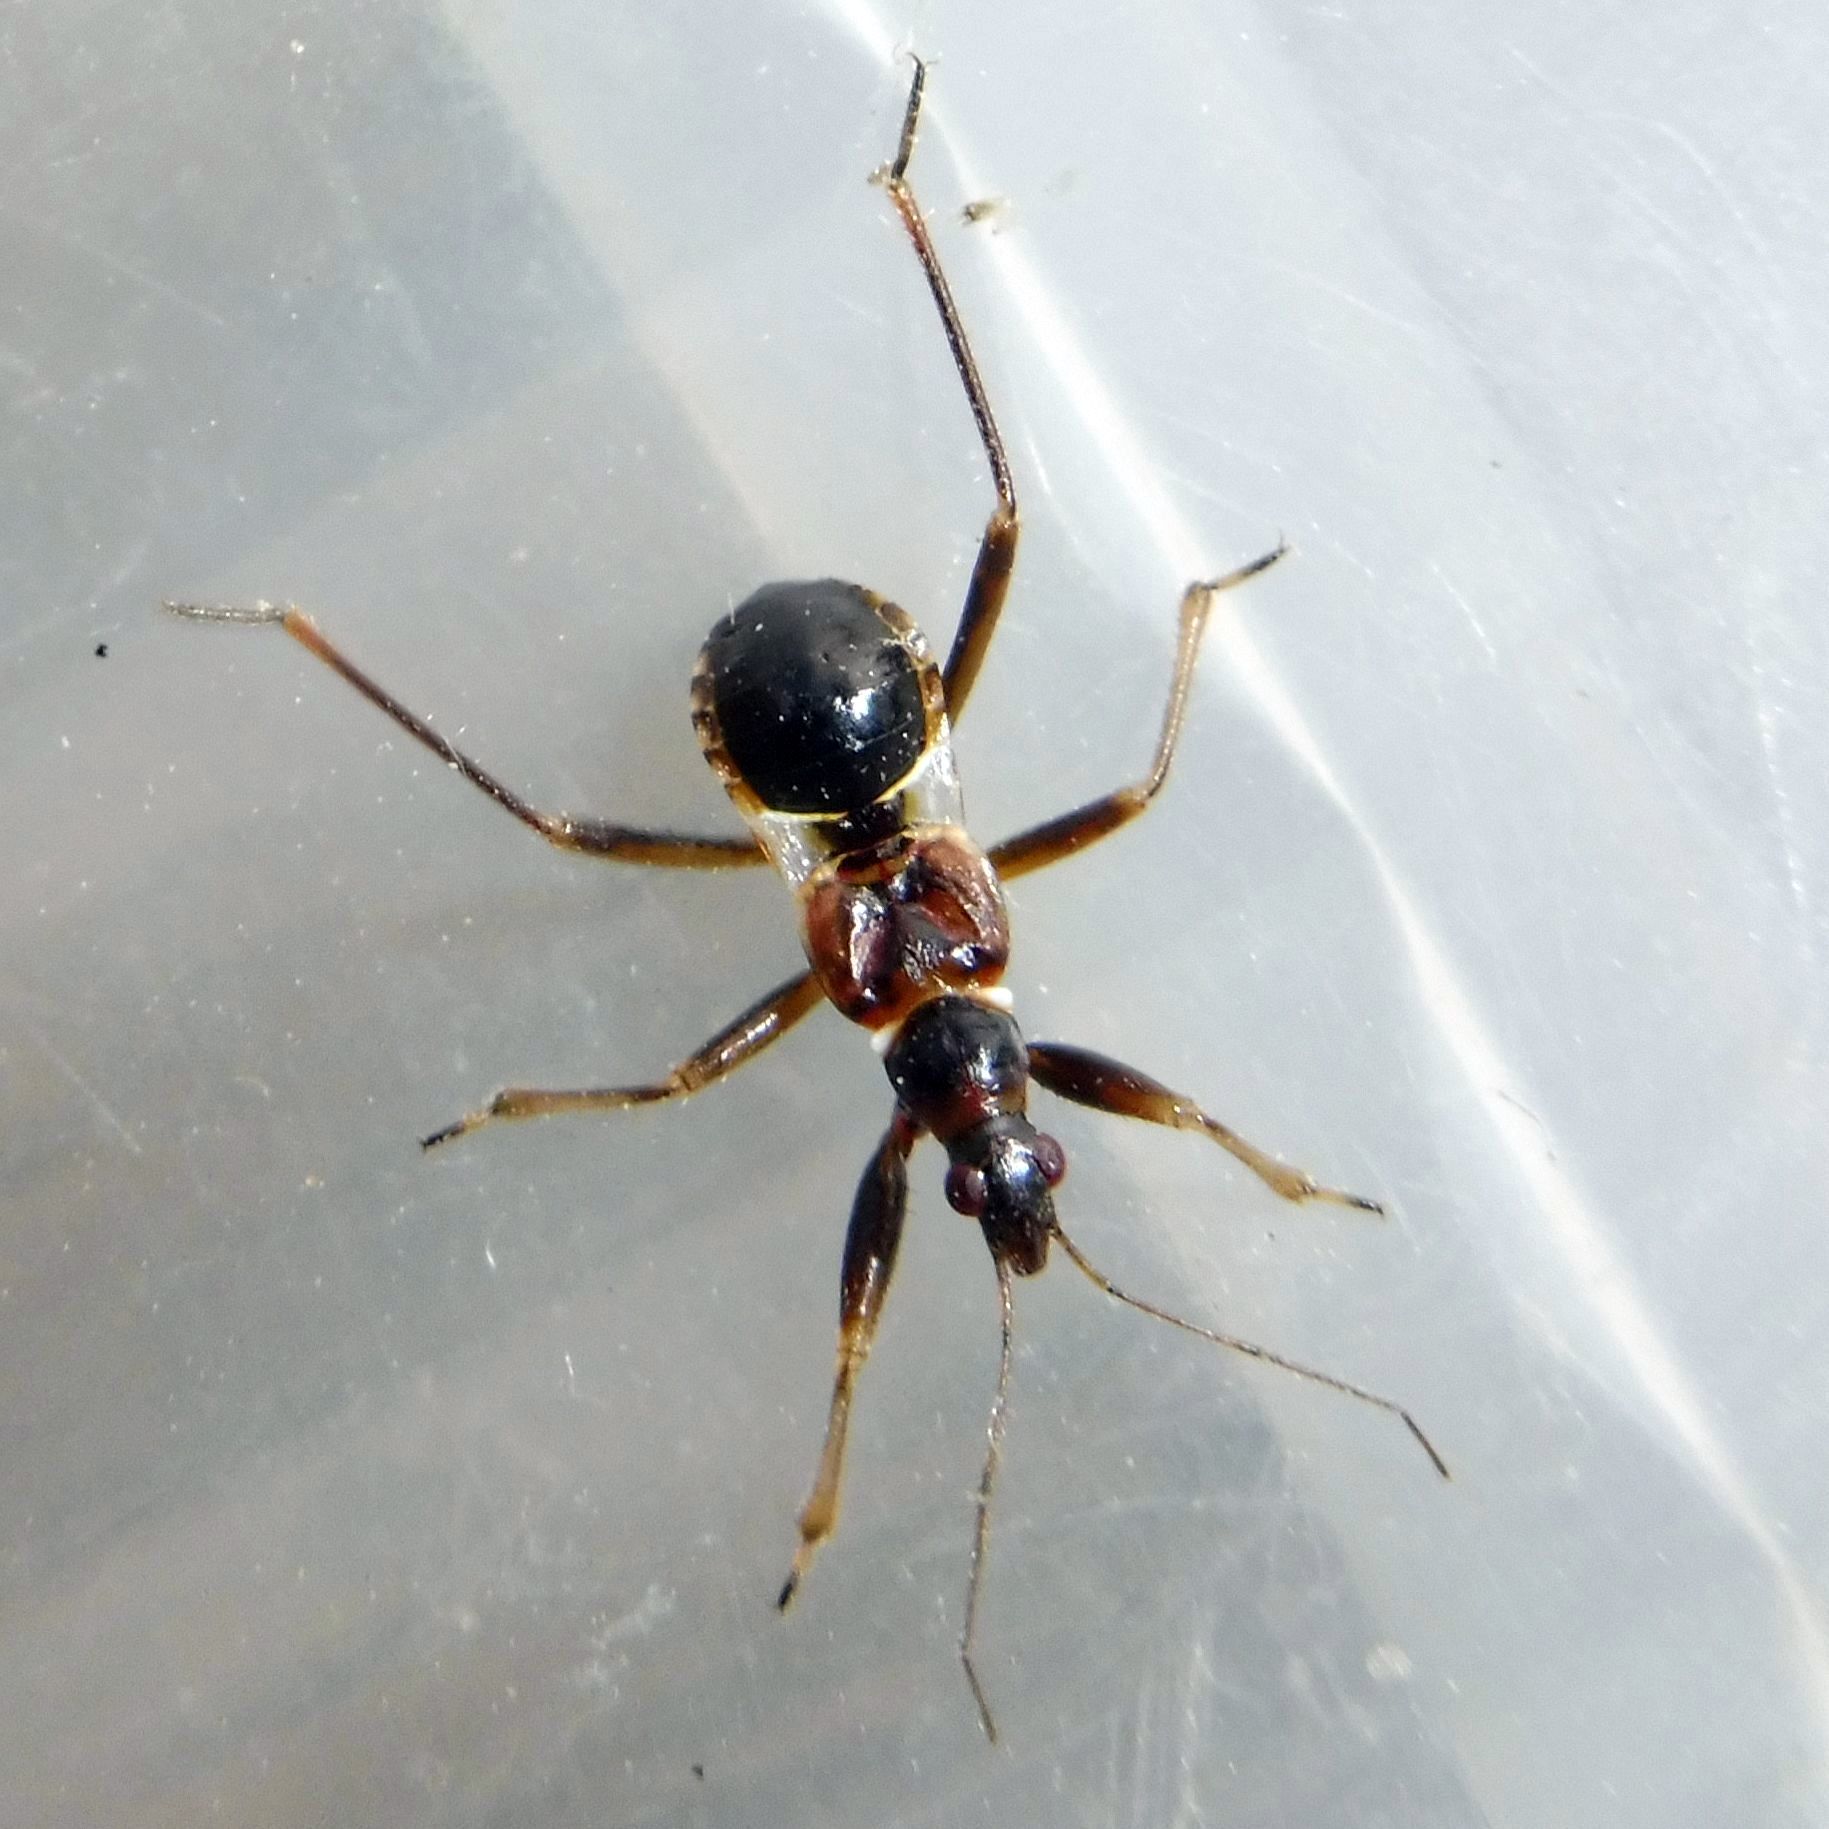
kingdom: Animalia
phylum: Arthropoda
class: Insecta
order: Hemiptera
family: Nabidae
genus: Himacerus
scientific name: Himacerus mirmicoides
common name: Ant damsel bug
